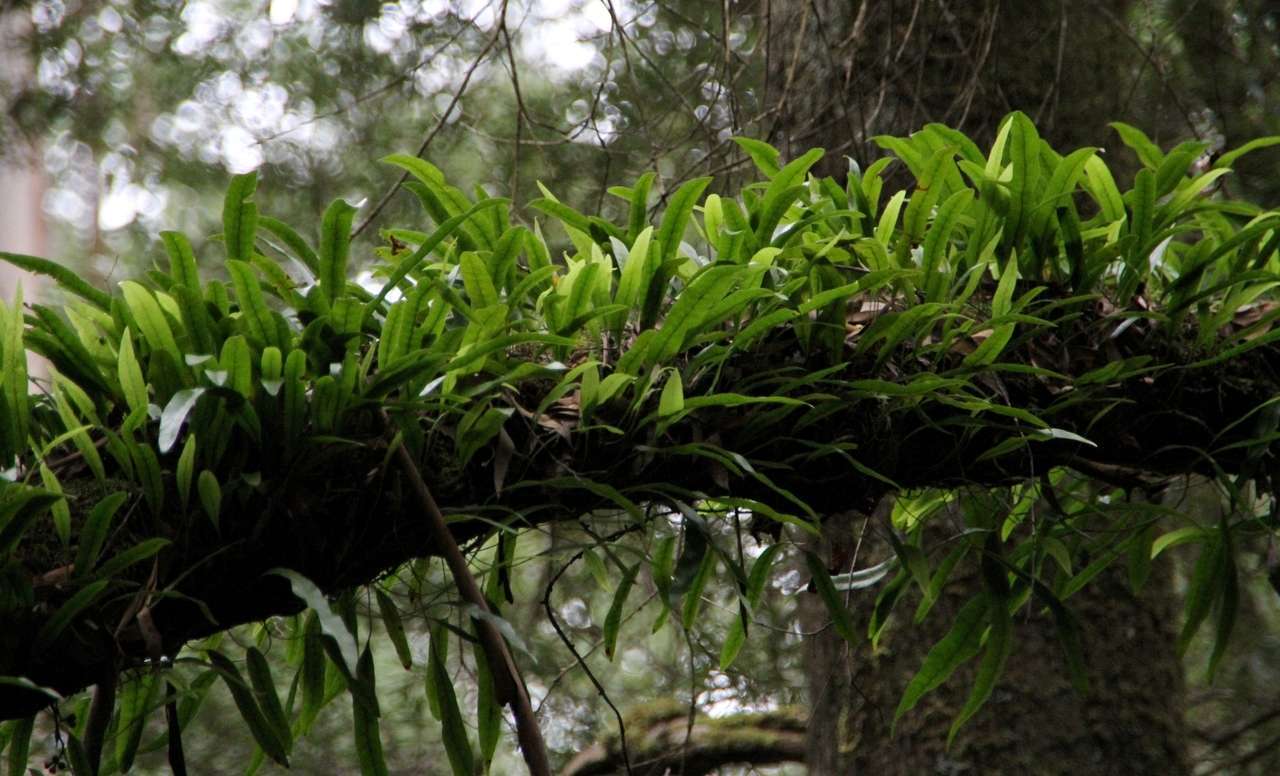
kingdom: Plantae
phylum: Tracheophyta
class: Polypodiopsida
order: Polypodiales
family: Polypodiaceae
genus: Lecanopteris
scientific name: Lecanopteris pustulata
